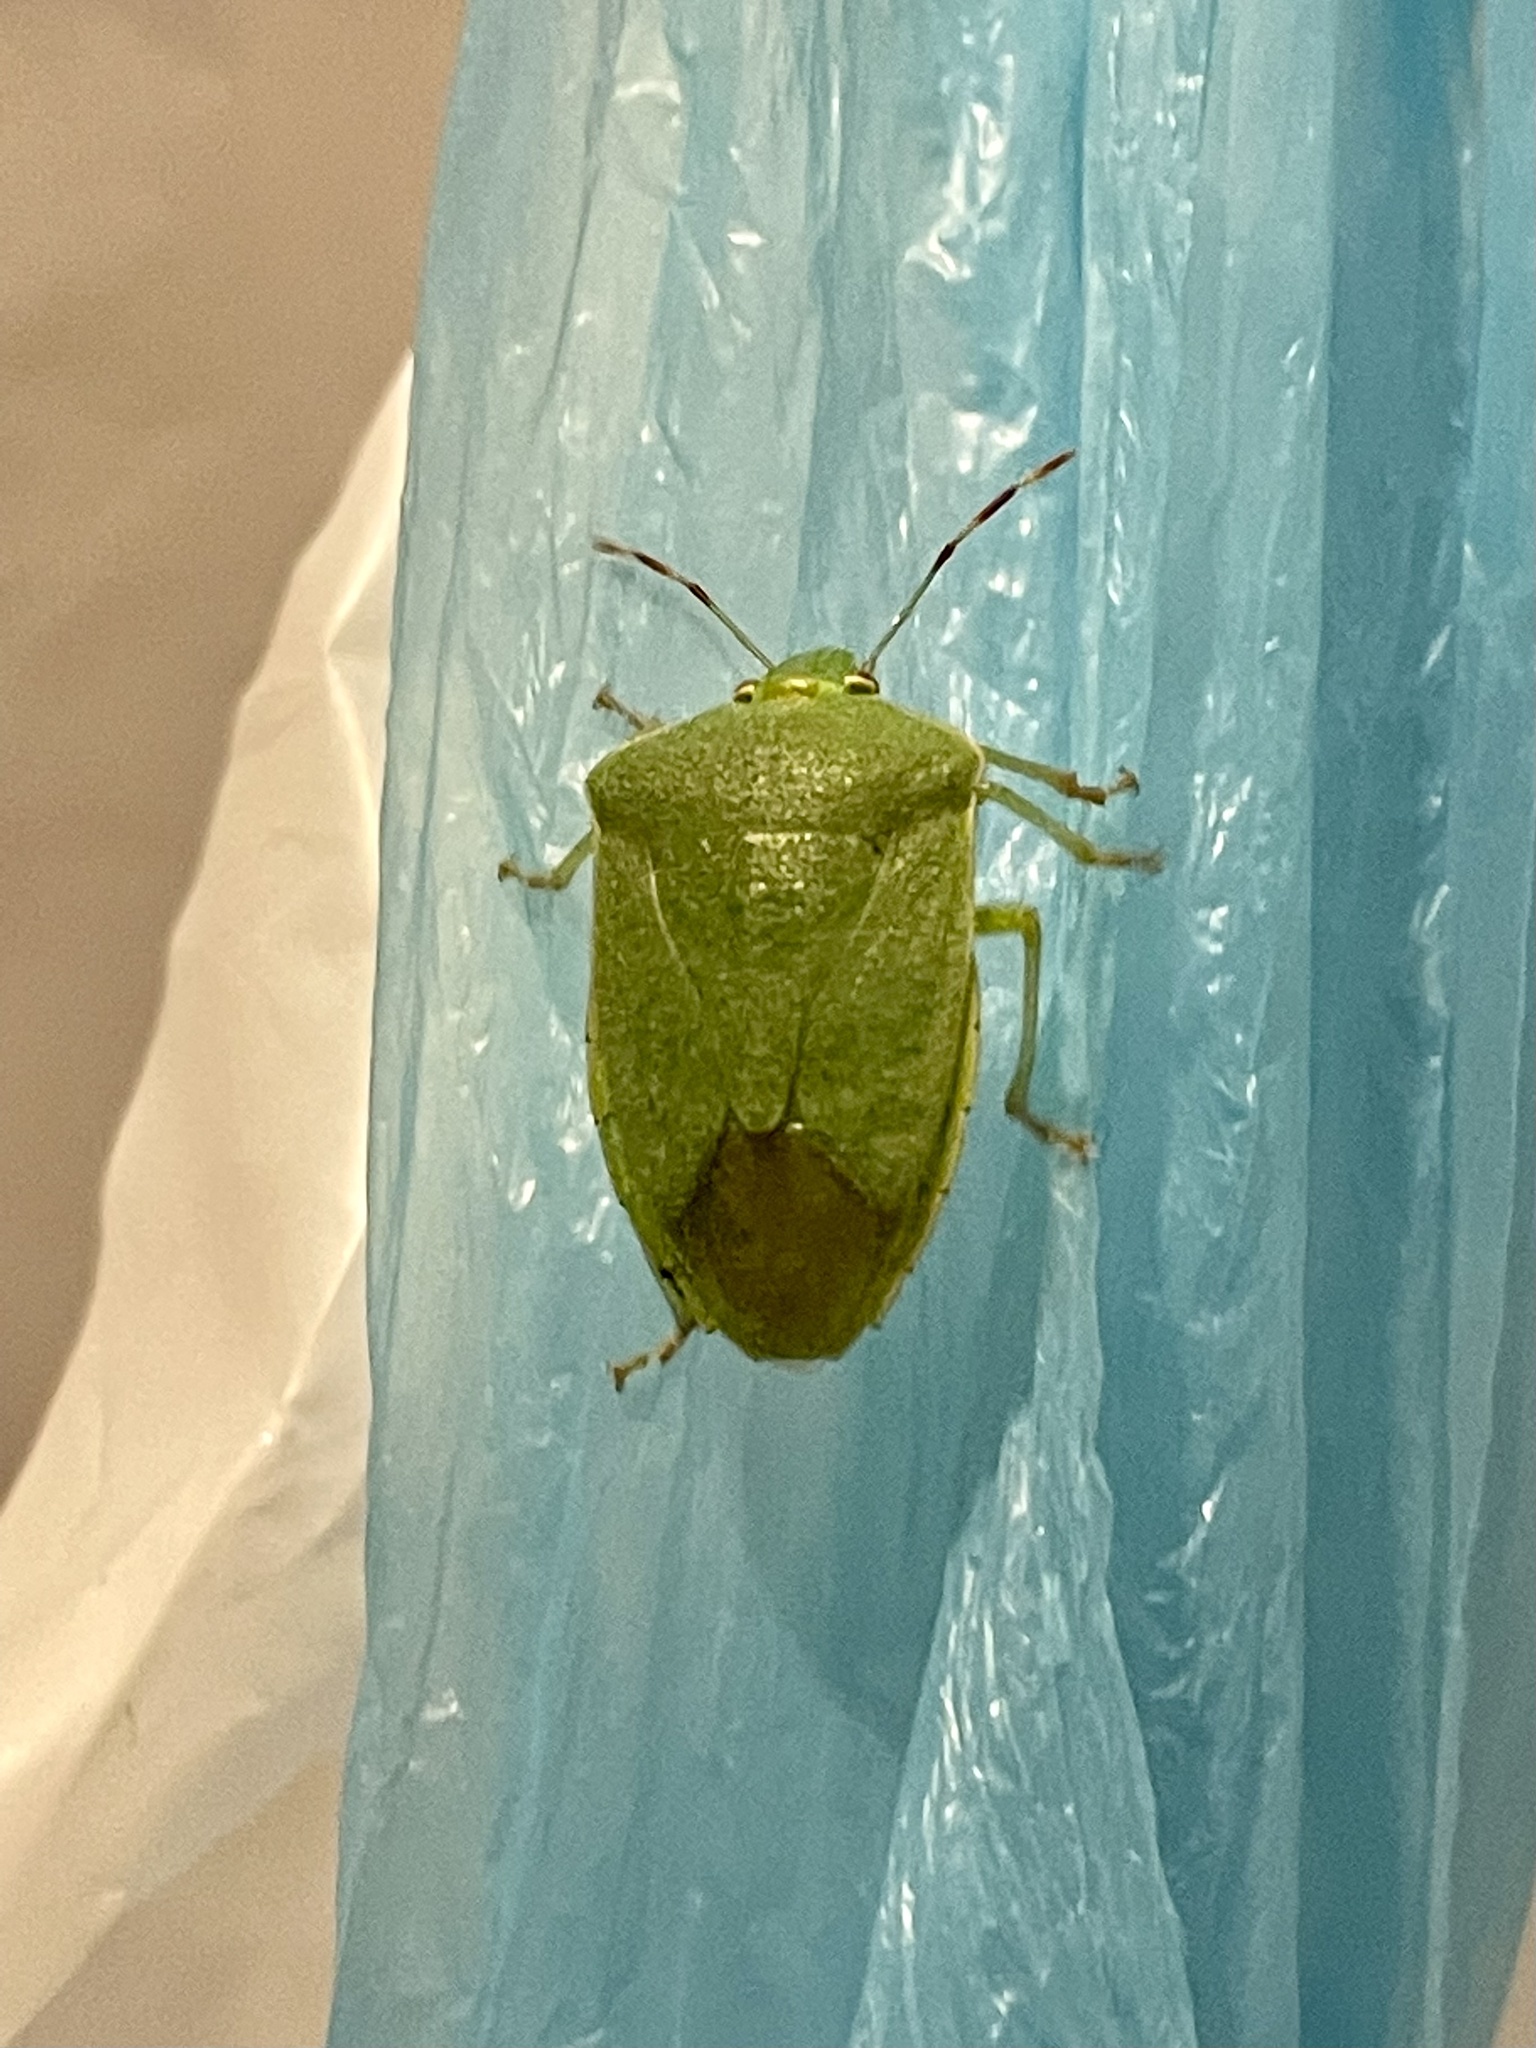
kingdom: Animalia
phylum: Arthropoda
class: Insecta
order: Hemiptera
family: Pentatomidae
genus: Nezara
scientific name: Nezara viridula
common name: Southern green stink bug
